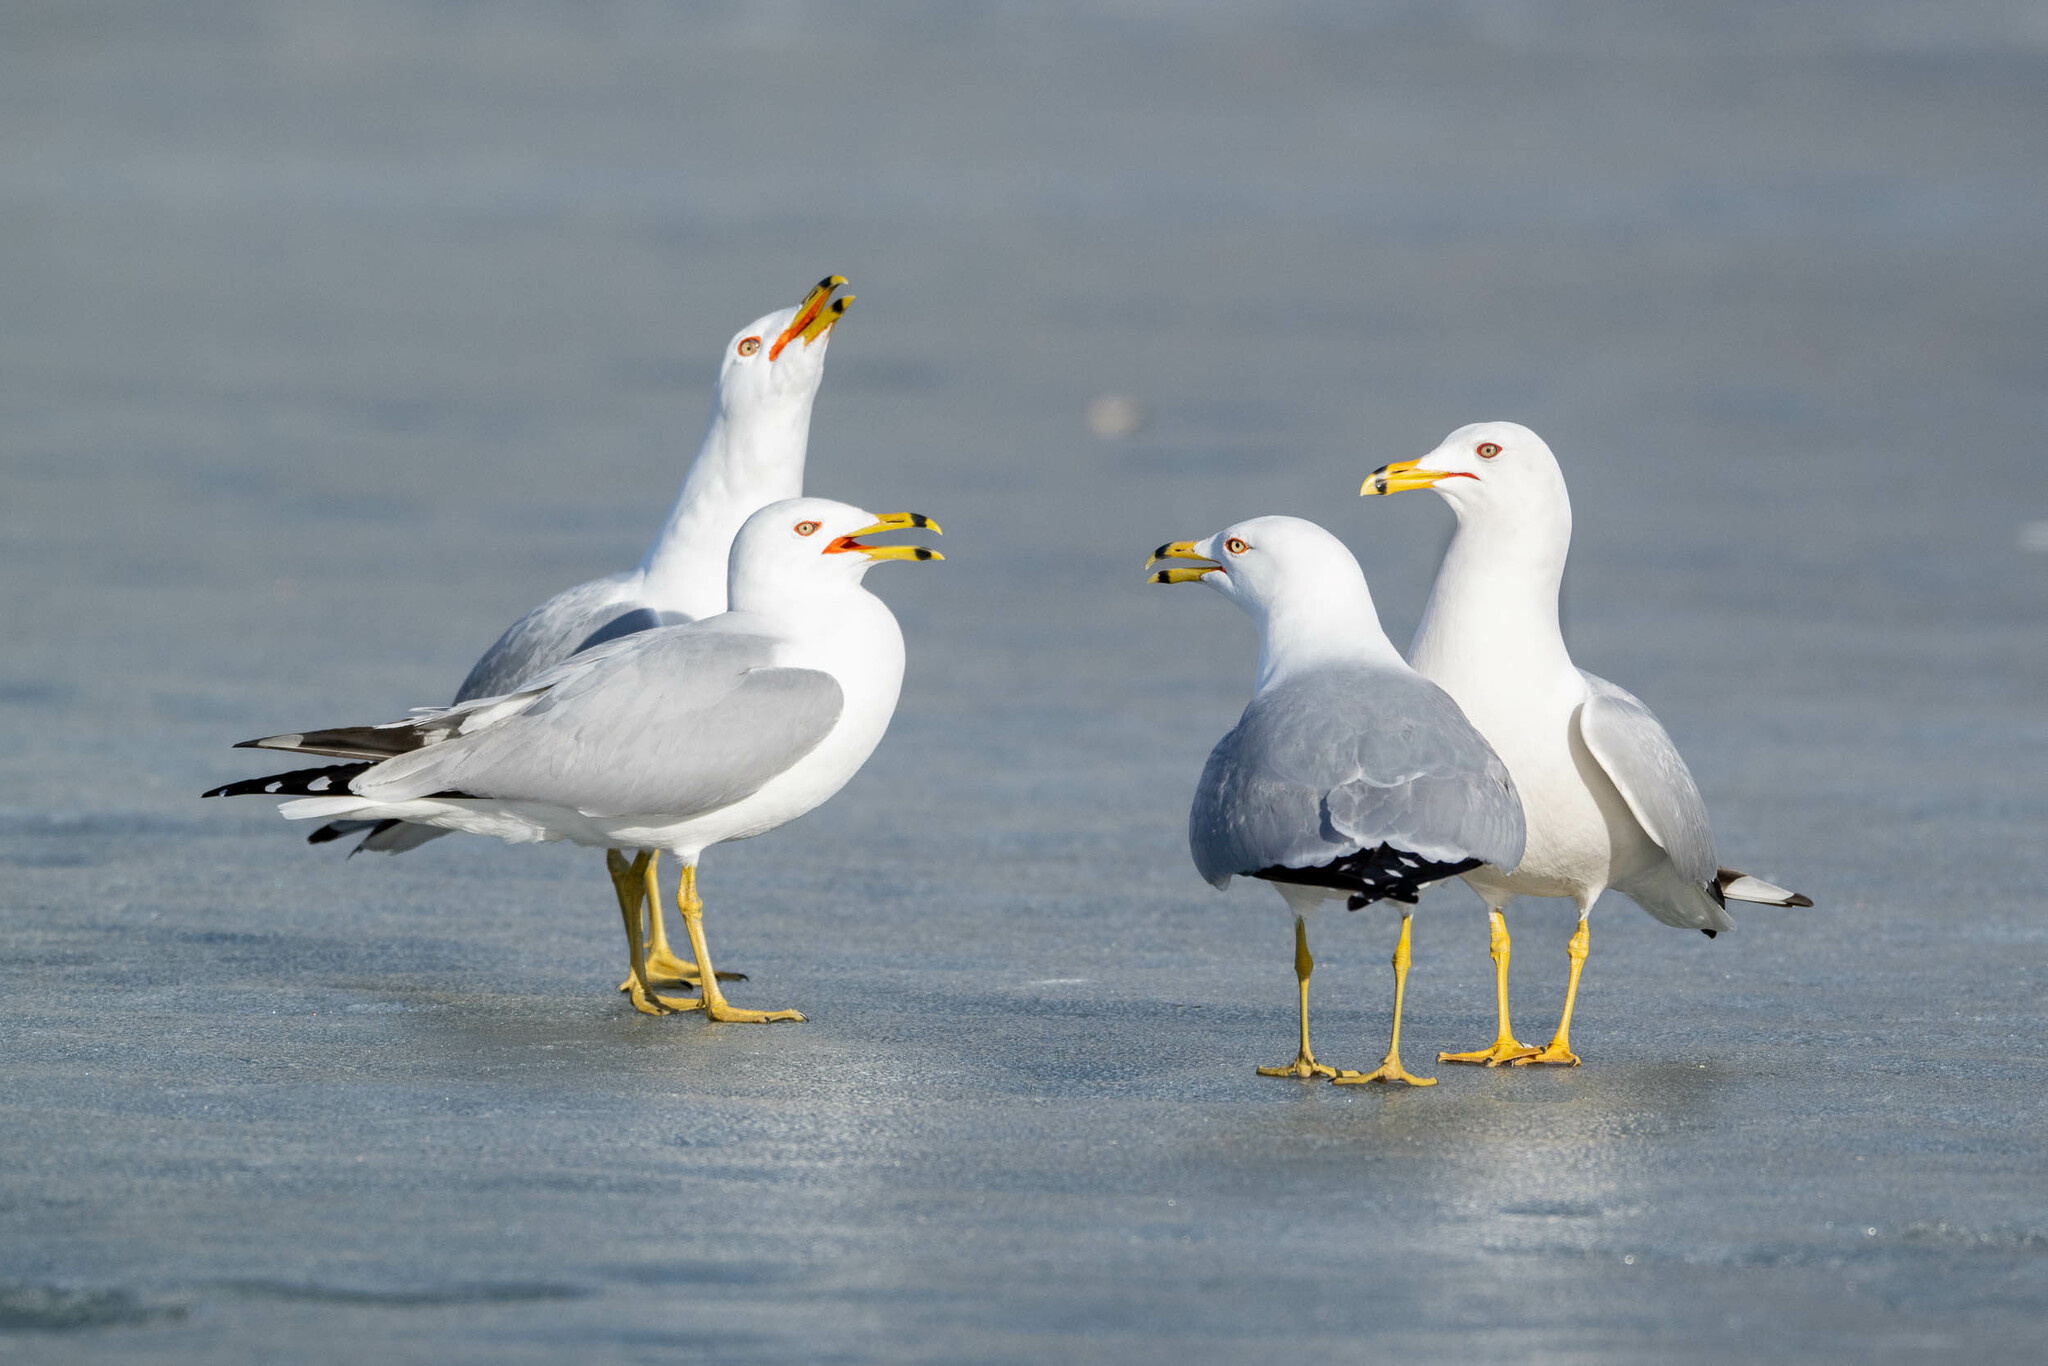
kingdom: Animalia
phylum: Chordata
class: Aves
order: Charadriiformes
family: Laridae
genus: Larus
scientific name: Larus delawarensis
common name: Ring-billed gull
